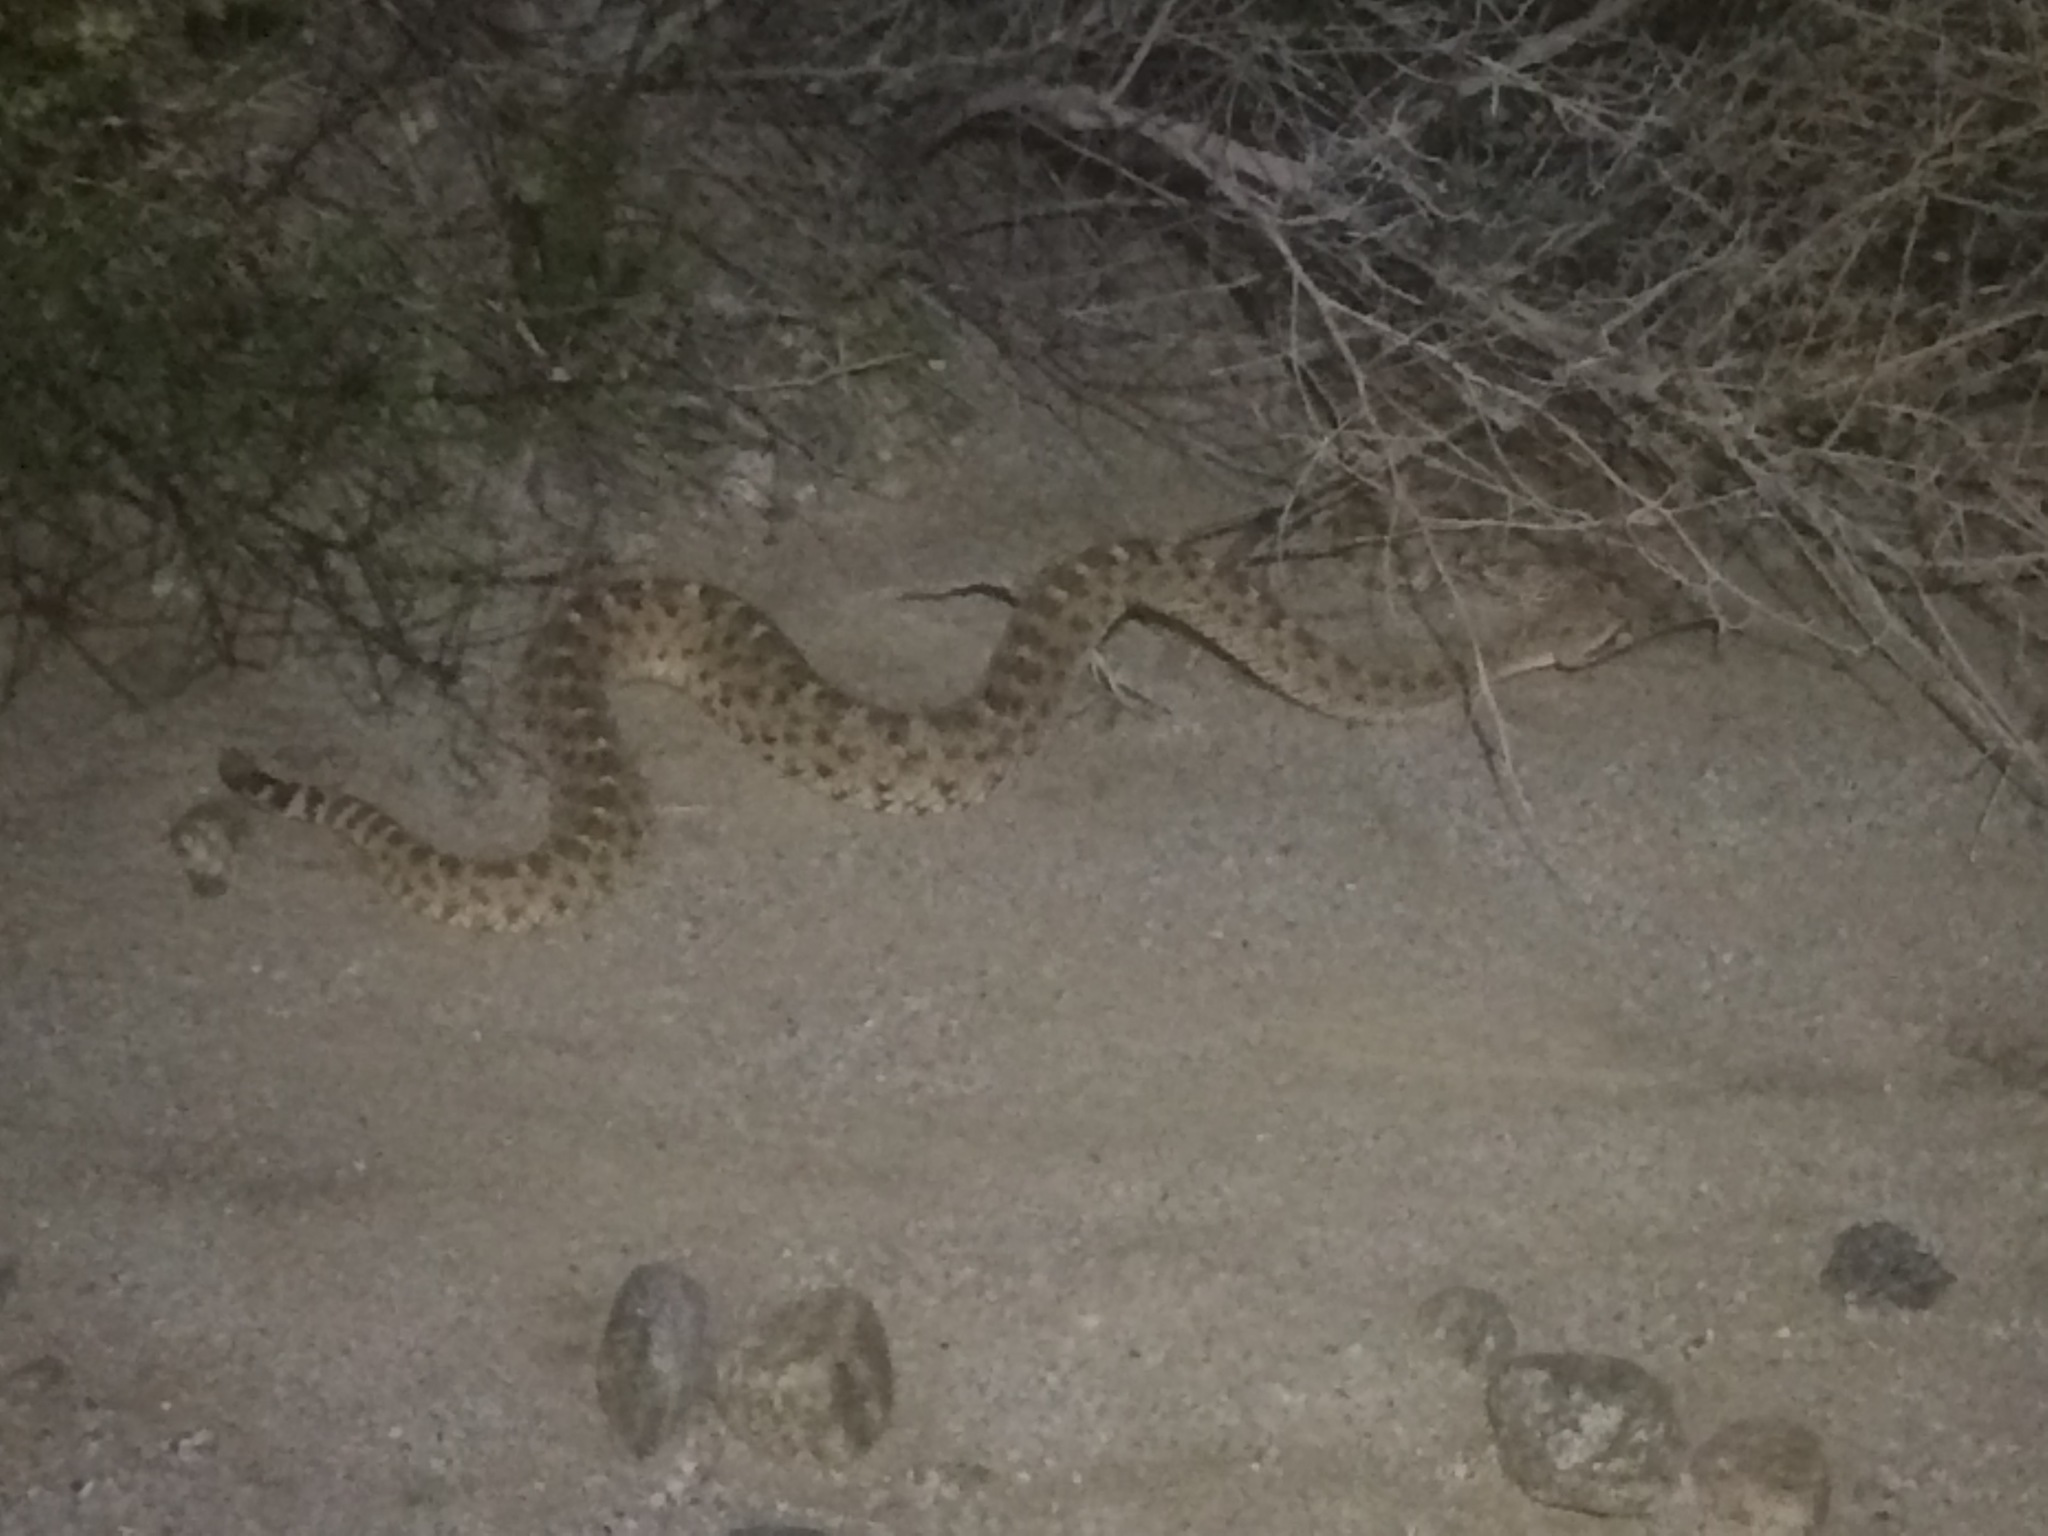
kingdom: Animalia
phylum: Chordata
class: Squamata
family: Viperidae
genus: Crotalus
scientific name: Crotalus cerastes
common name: Sidewinder
